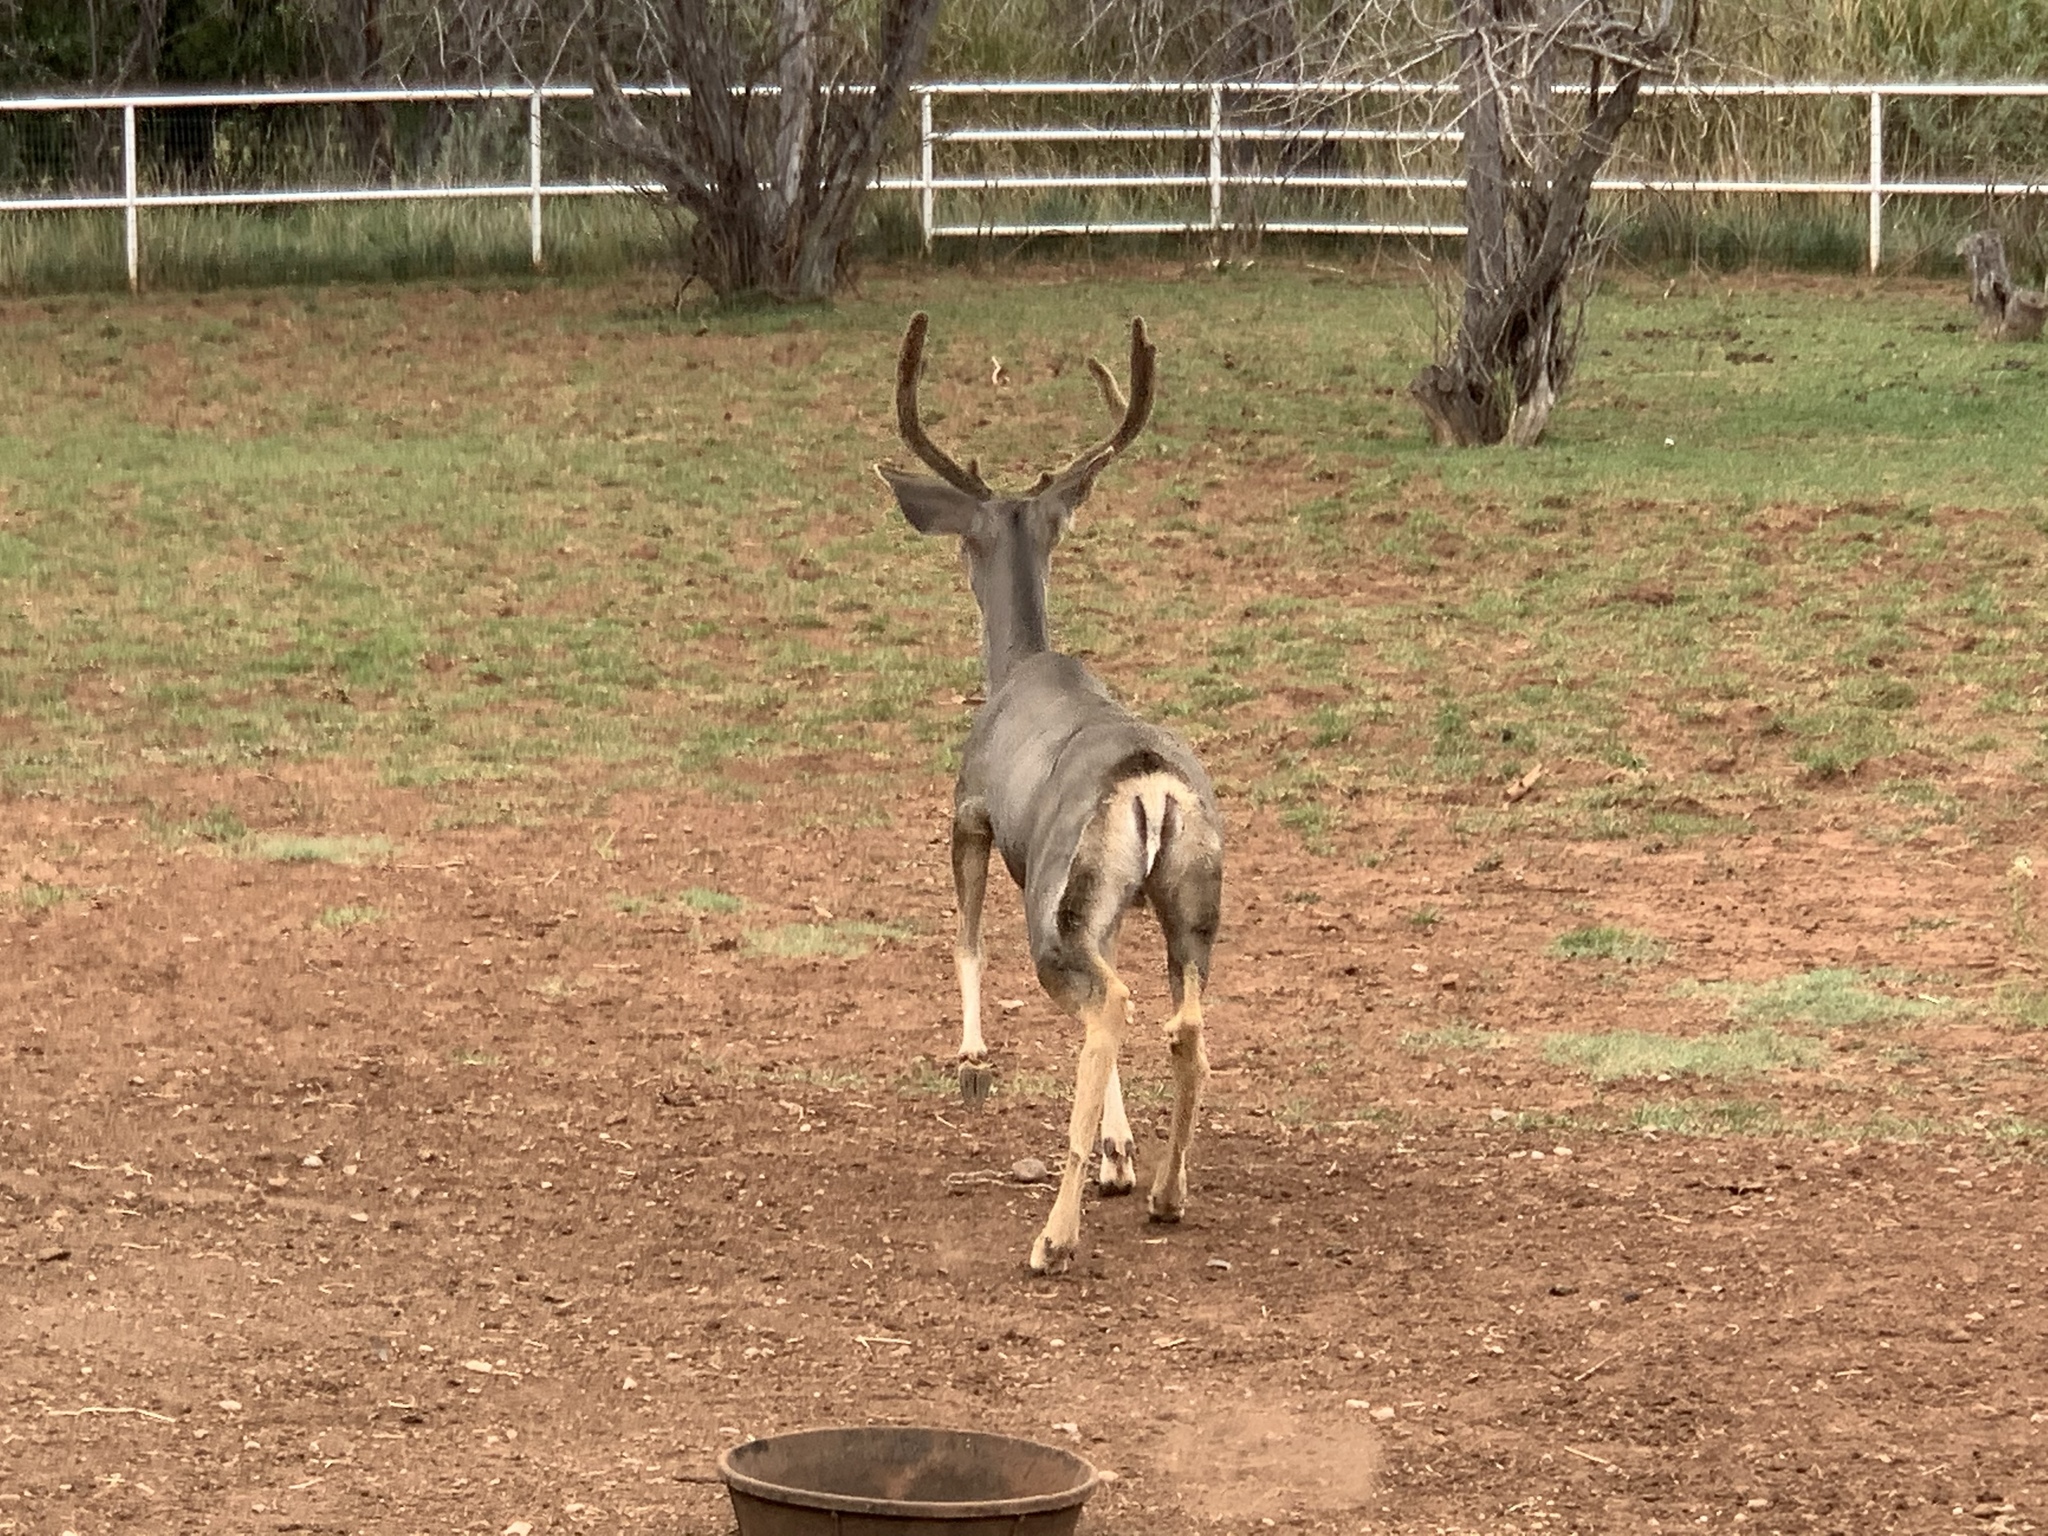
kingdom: Animalia
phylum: Chordata
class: Mammalia
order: Artiodactyla
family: Cervidae
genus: Odocoileus
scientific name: Odocoileus hemionus
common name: Mule deer
